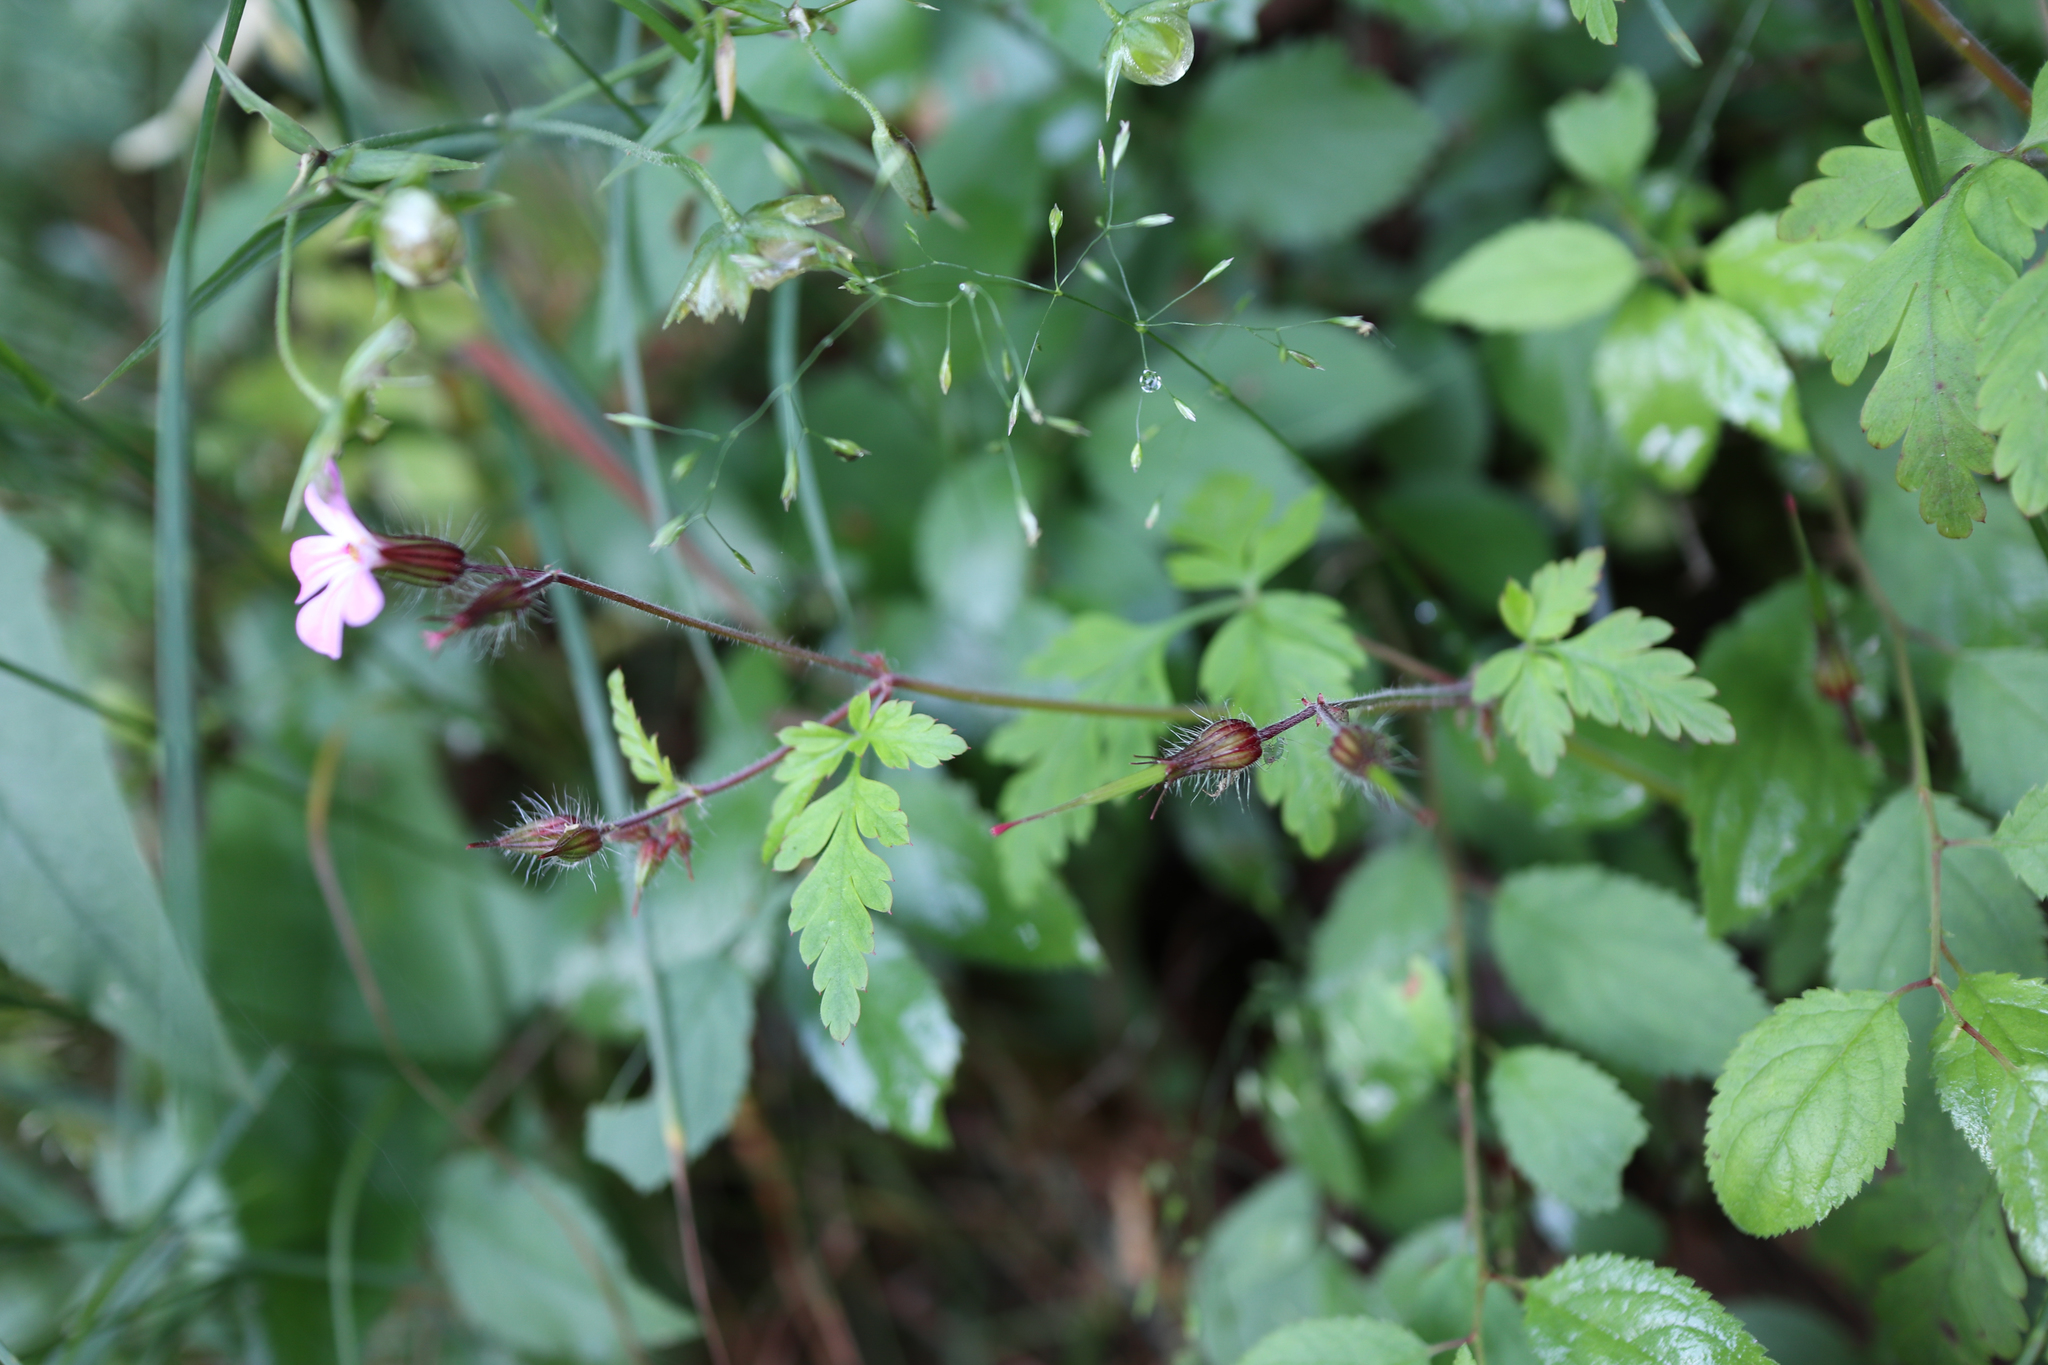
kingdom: Plantae
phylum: Tracheophyta
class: Magnoliopsida
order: Geraniales
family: Geraniaceae
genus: Geranium
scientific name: Geranium robertianum
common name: Herb-robert
